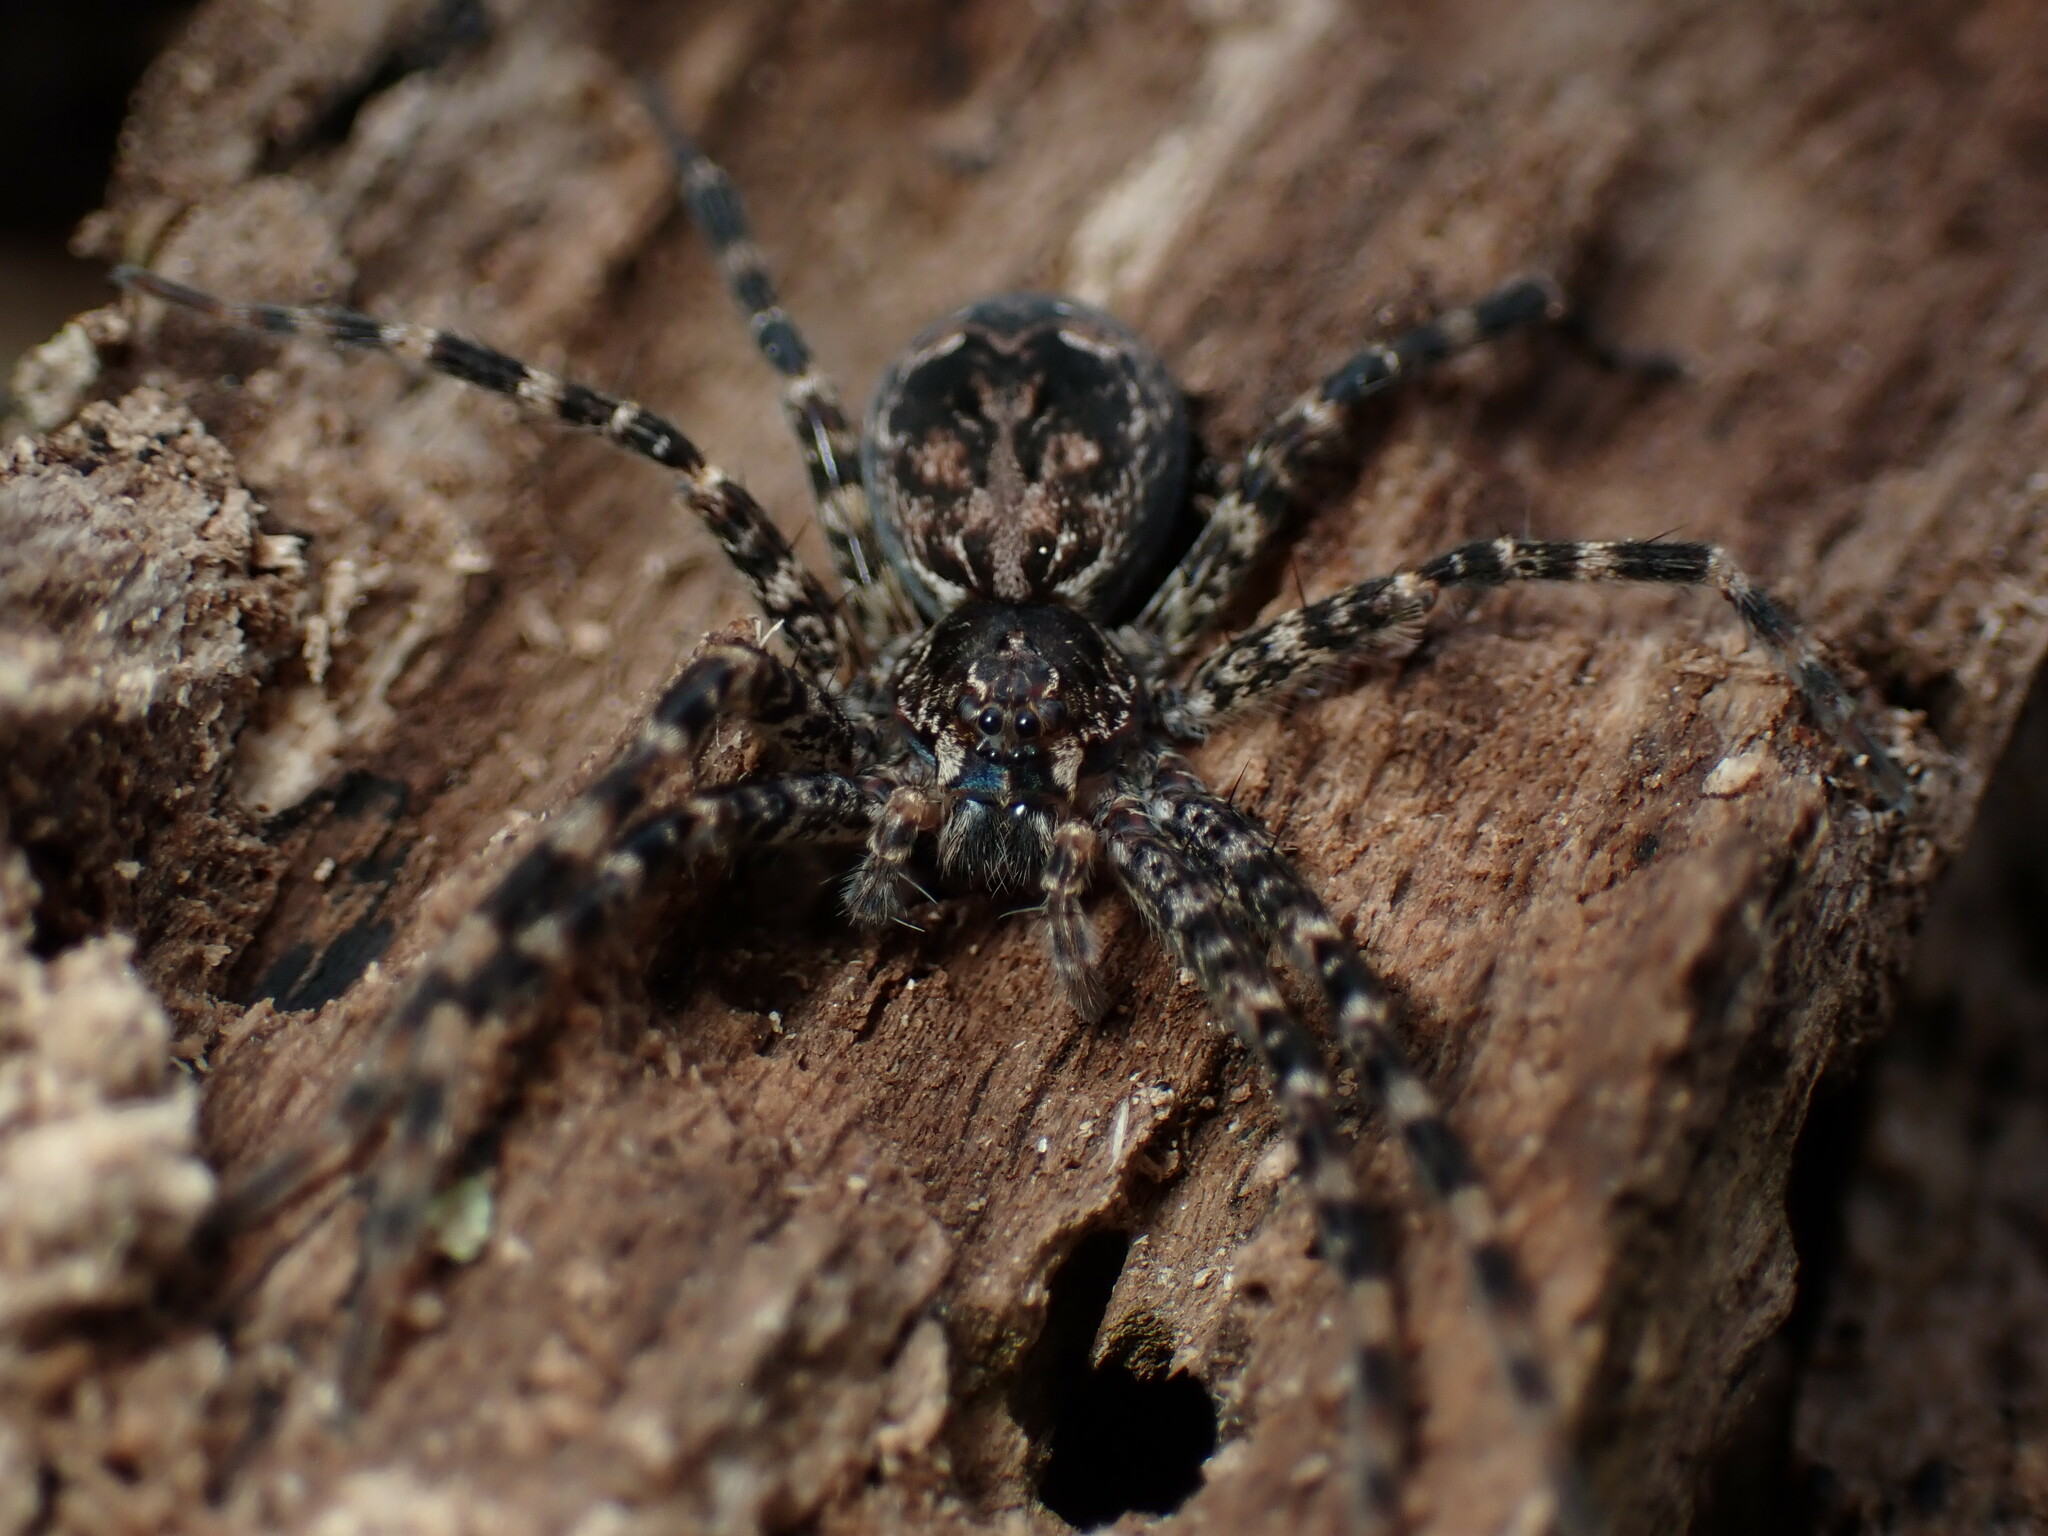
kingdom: Animalia
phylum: Arthropoda
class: Arachnida
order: Araneae
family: Pisauridae
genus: Dolomedes
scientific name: Dolomedes tenebrosus
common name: Dark fishing spider
